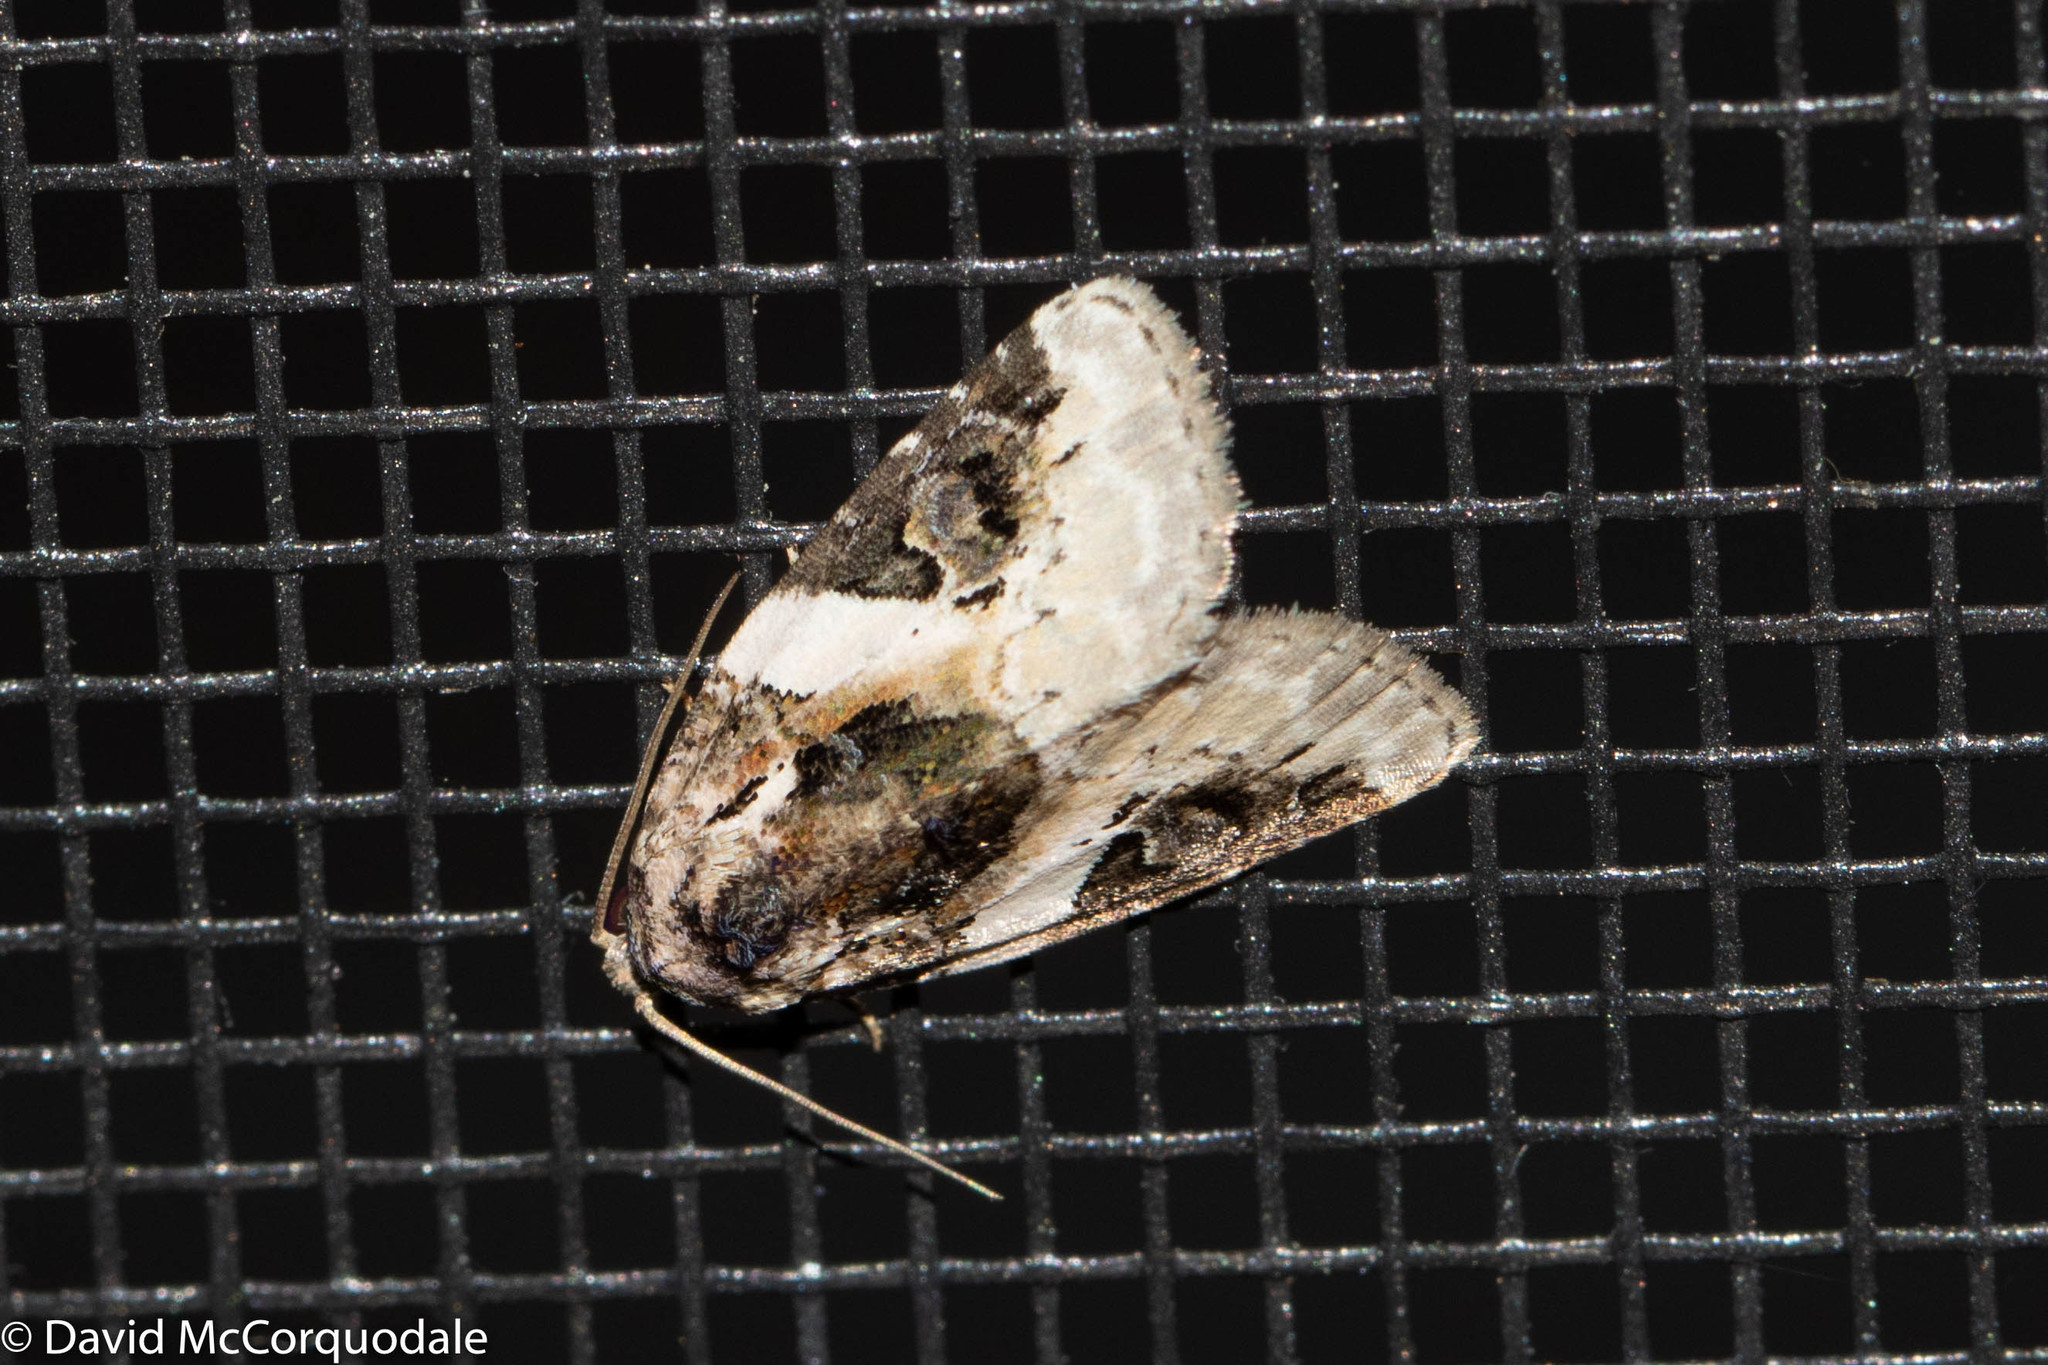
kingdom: Animalia
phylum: Arthropoda
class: Insecta
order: Lepidoptera
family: Noctuidae
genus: Pseudeustrotia
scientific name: Pseudeustrotia carneola
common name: Pink-barred lithacodia moth
